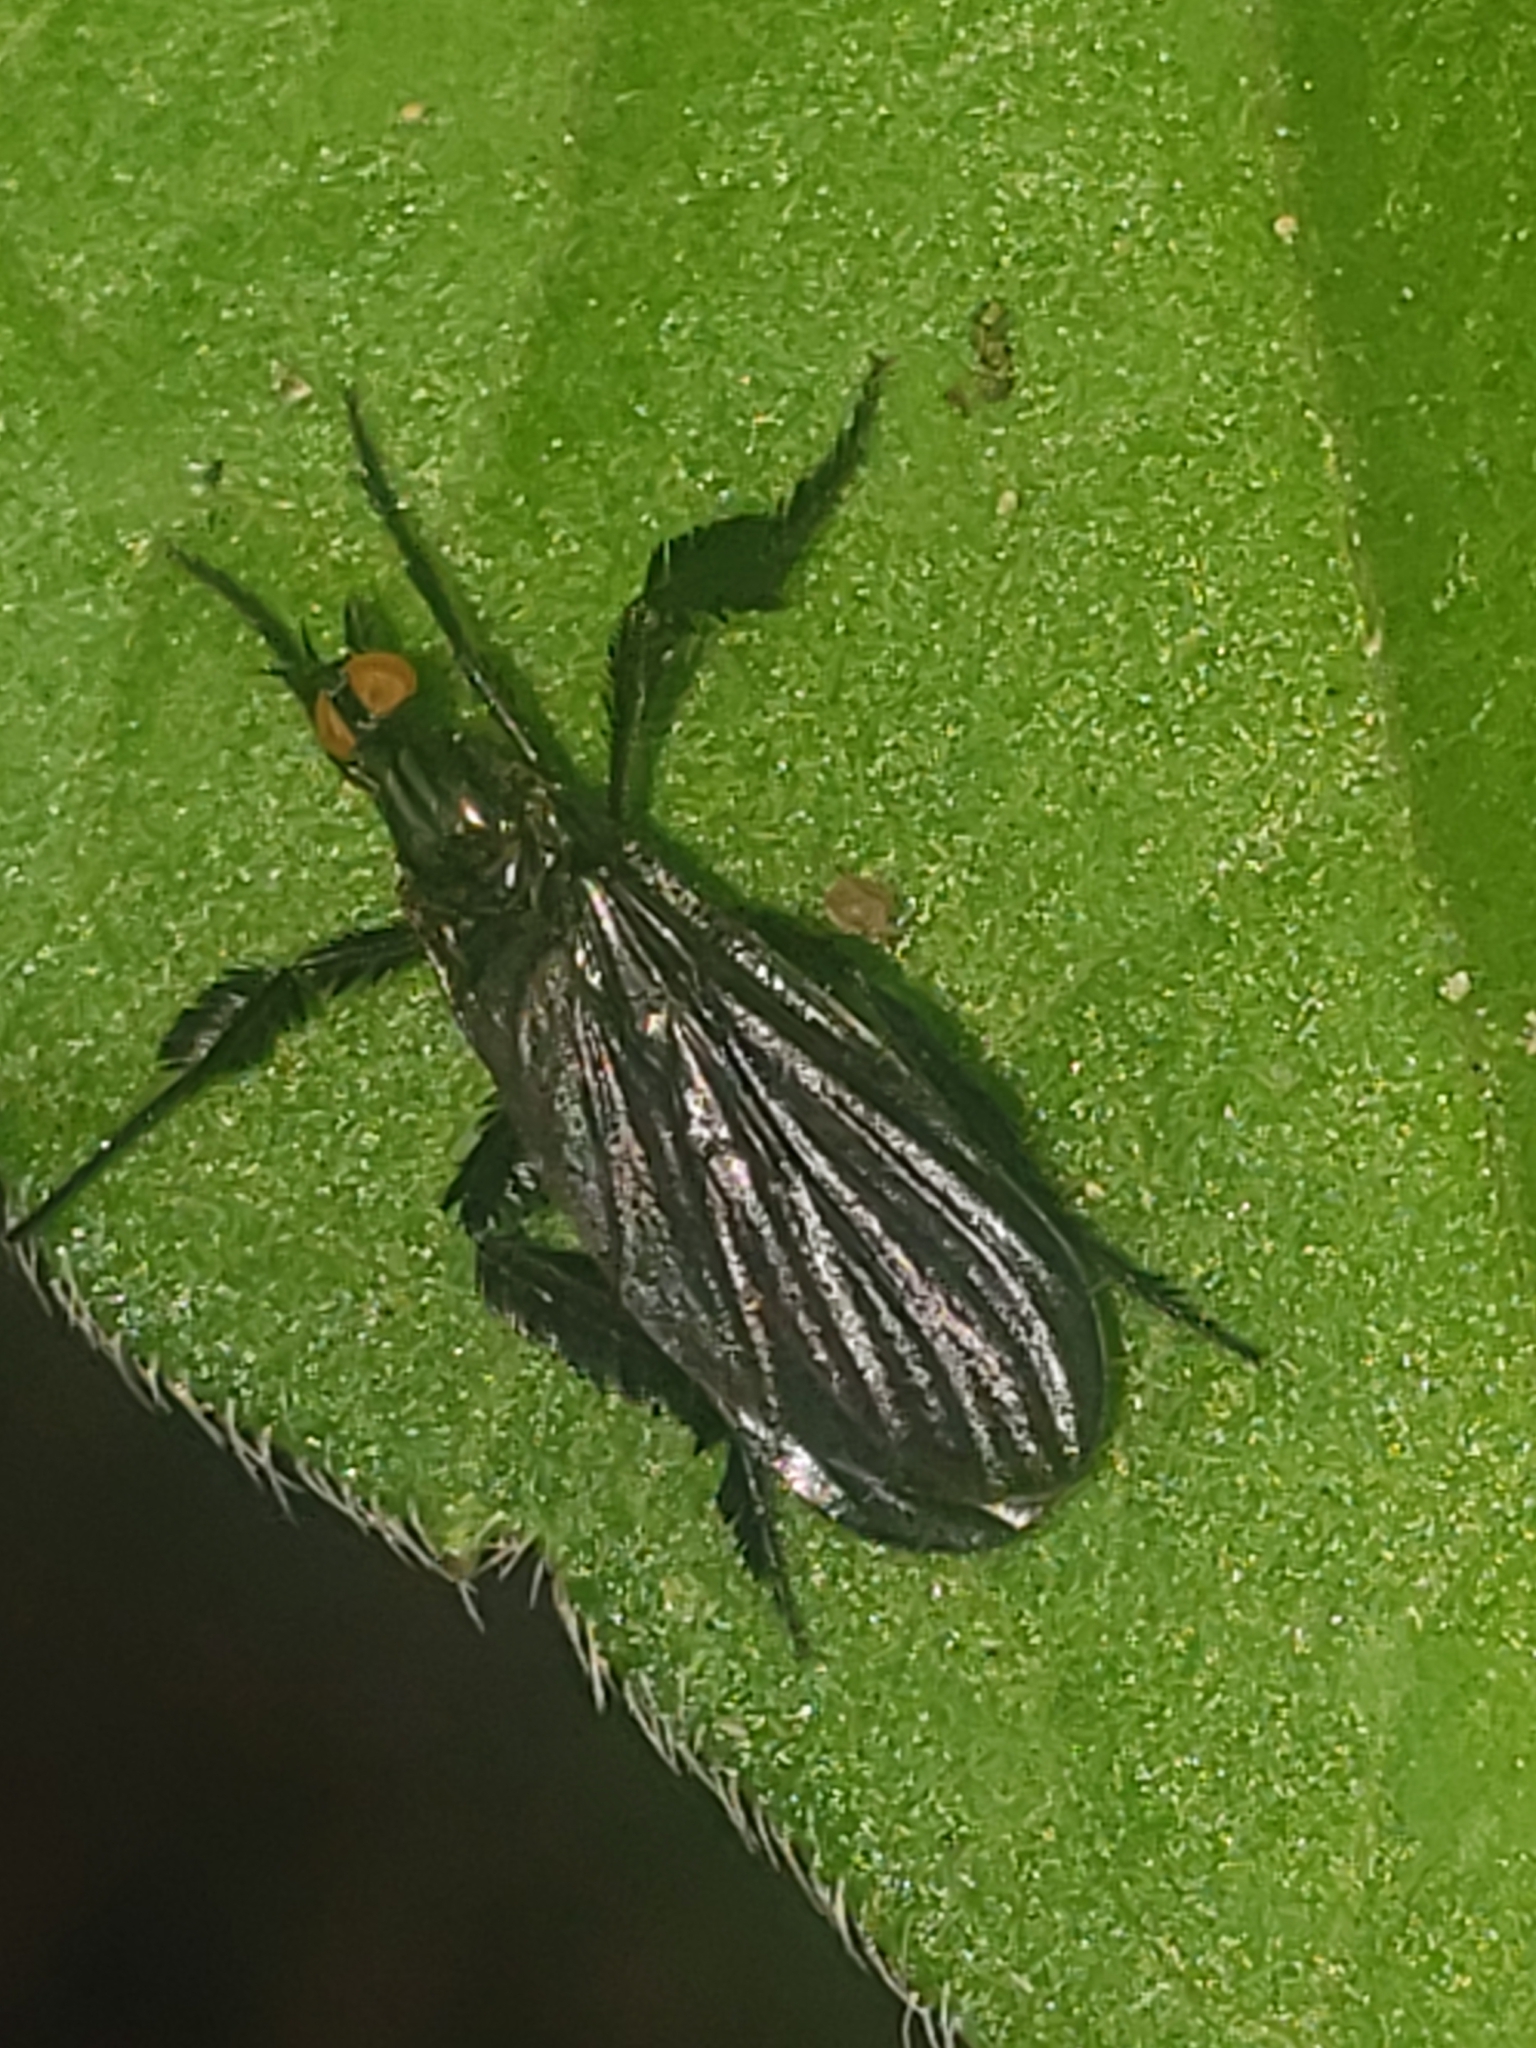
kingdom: Animalia
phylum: Arthropoda
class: Insecta
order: Diptera
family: Empididae
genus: Rhamphomyia
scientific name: Rhamphomyia longicauda
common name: Long-tailed dance fly
